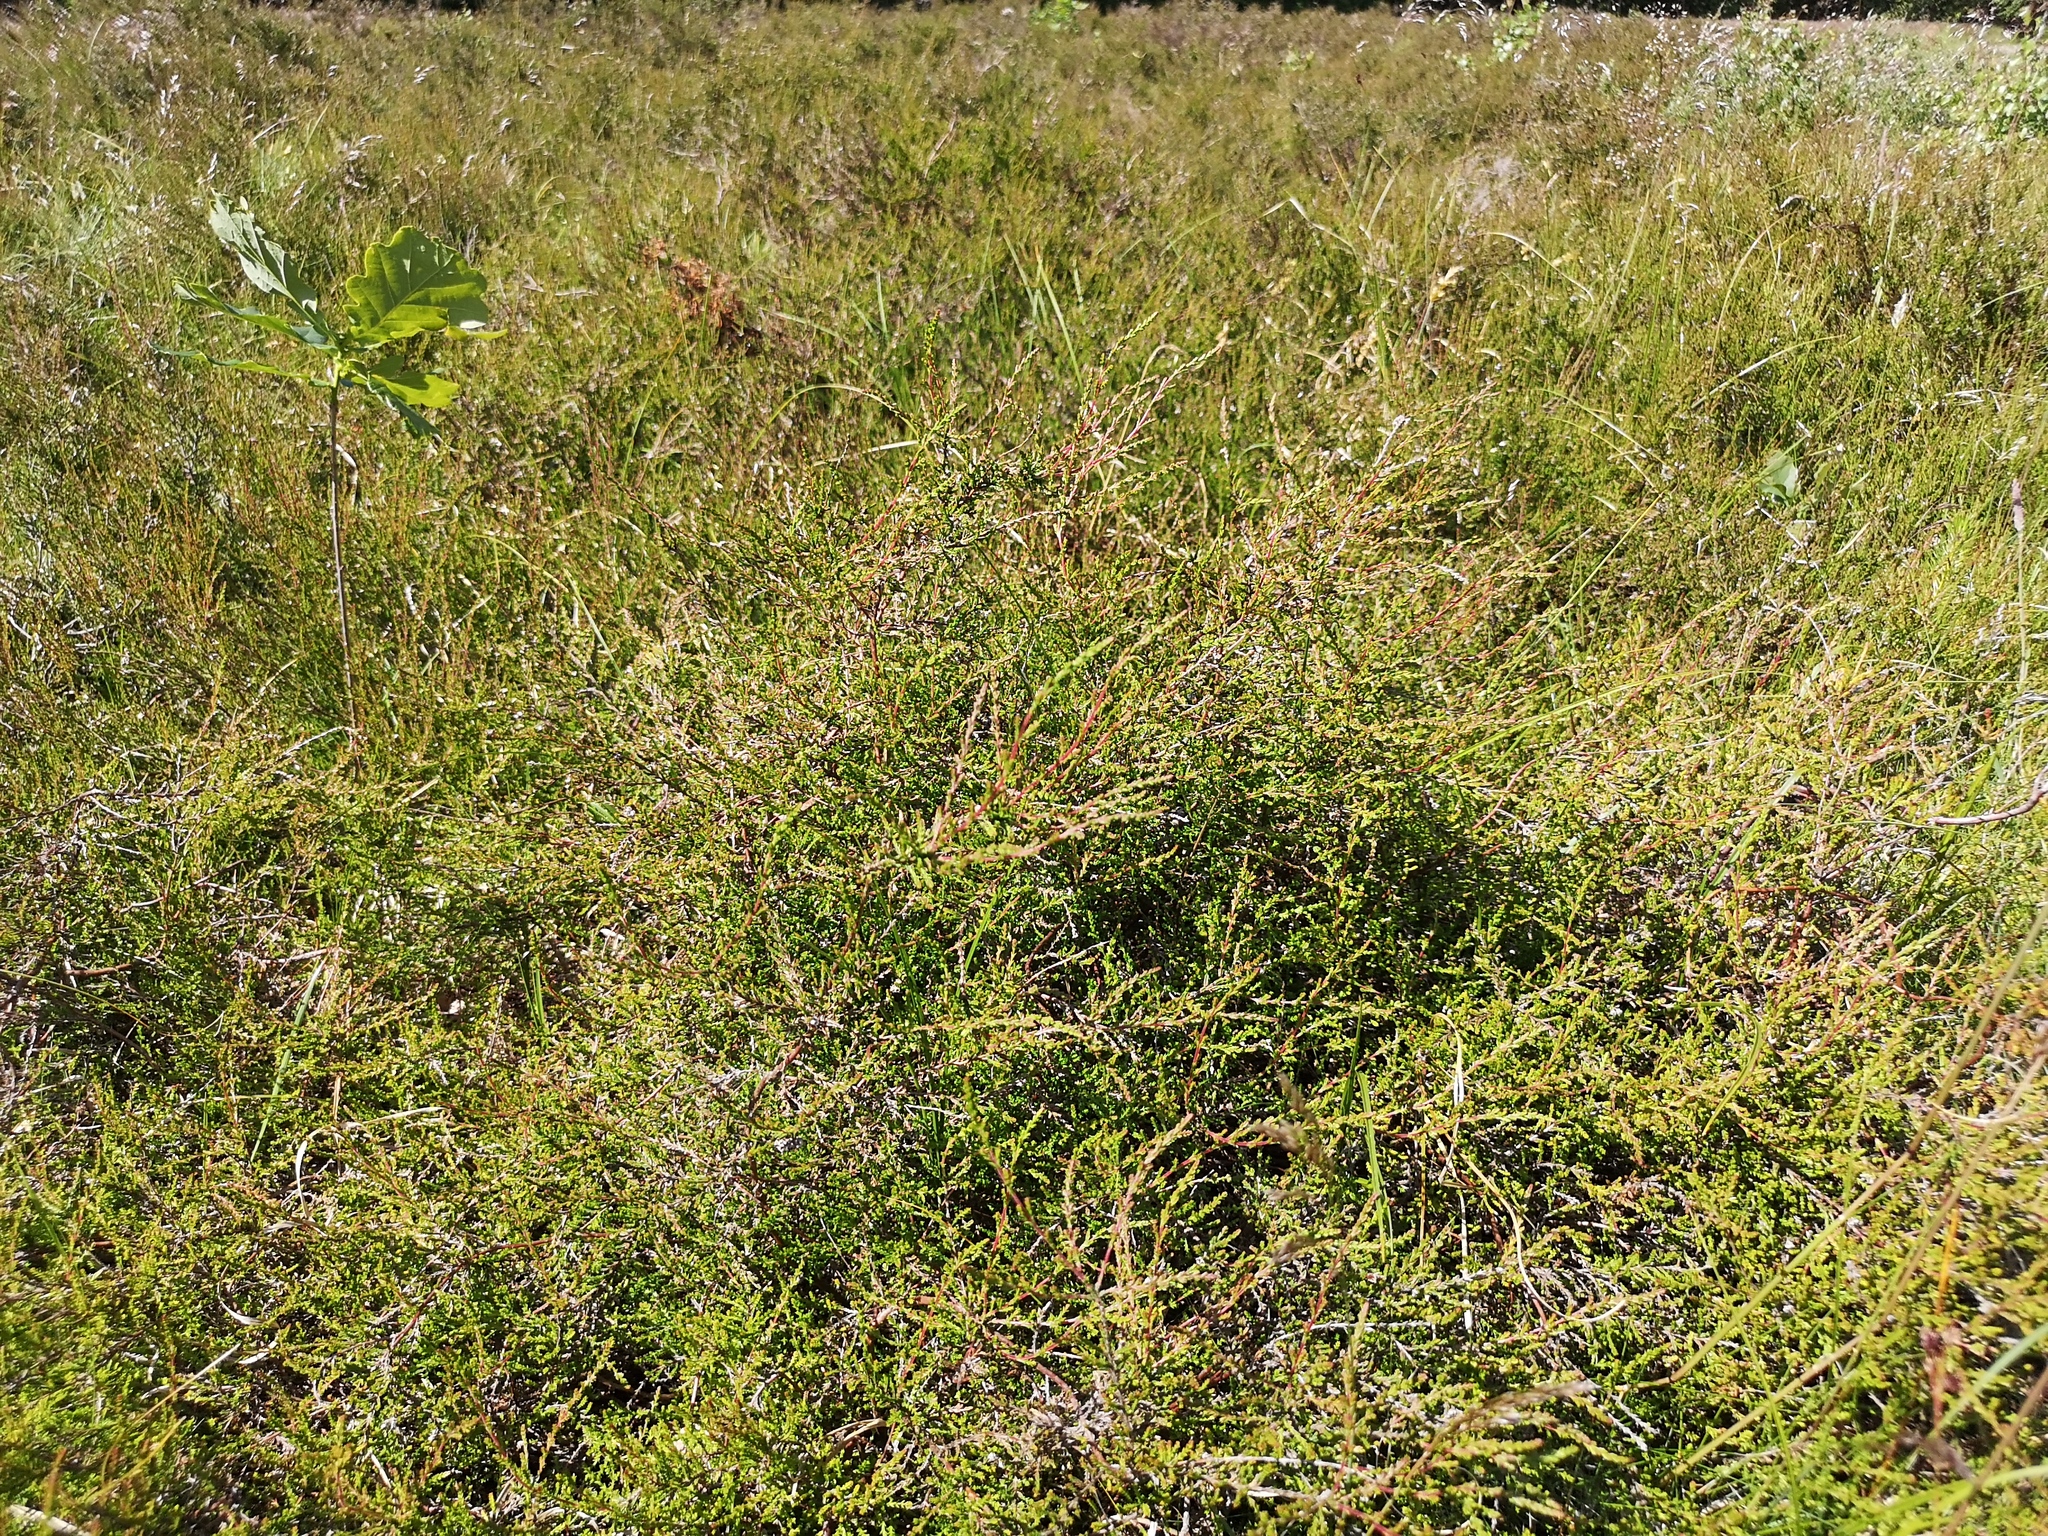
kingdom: Plantae
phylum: Tracheophyta
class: Magnoliopsida
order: Ericales
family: Ericaceae
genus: Calluna
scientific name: Calluna vulgaris
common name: Heather
